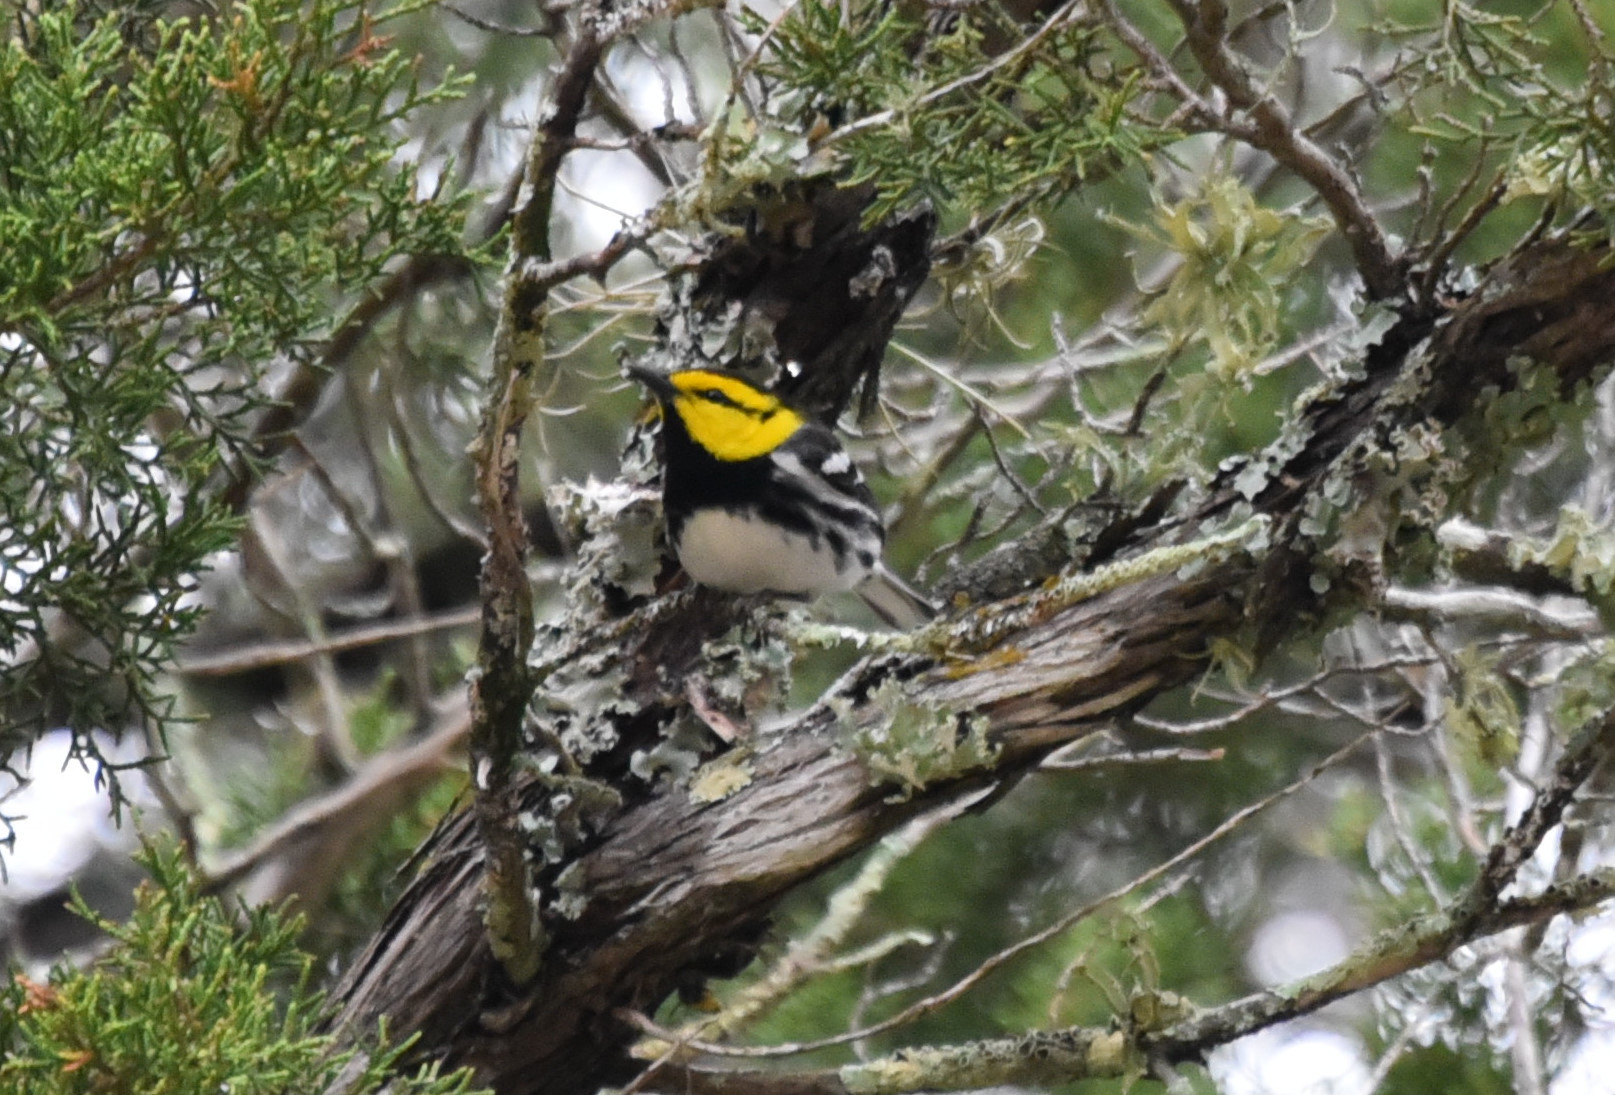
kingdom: Animalia
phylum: Chordata
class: Aves
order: Passeriformes
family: Parulidae
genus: Setophaga
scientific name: Setophaga chrysoparia
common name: Golden-cheeked warbler
